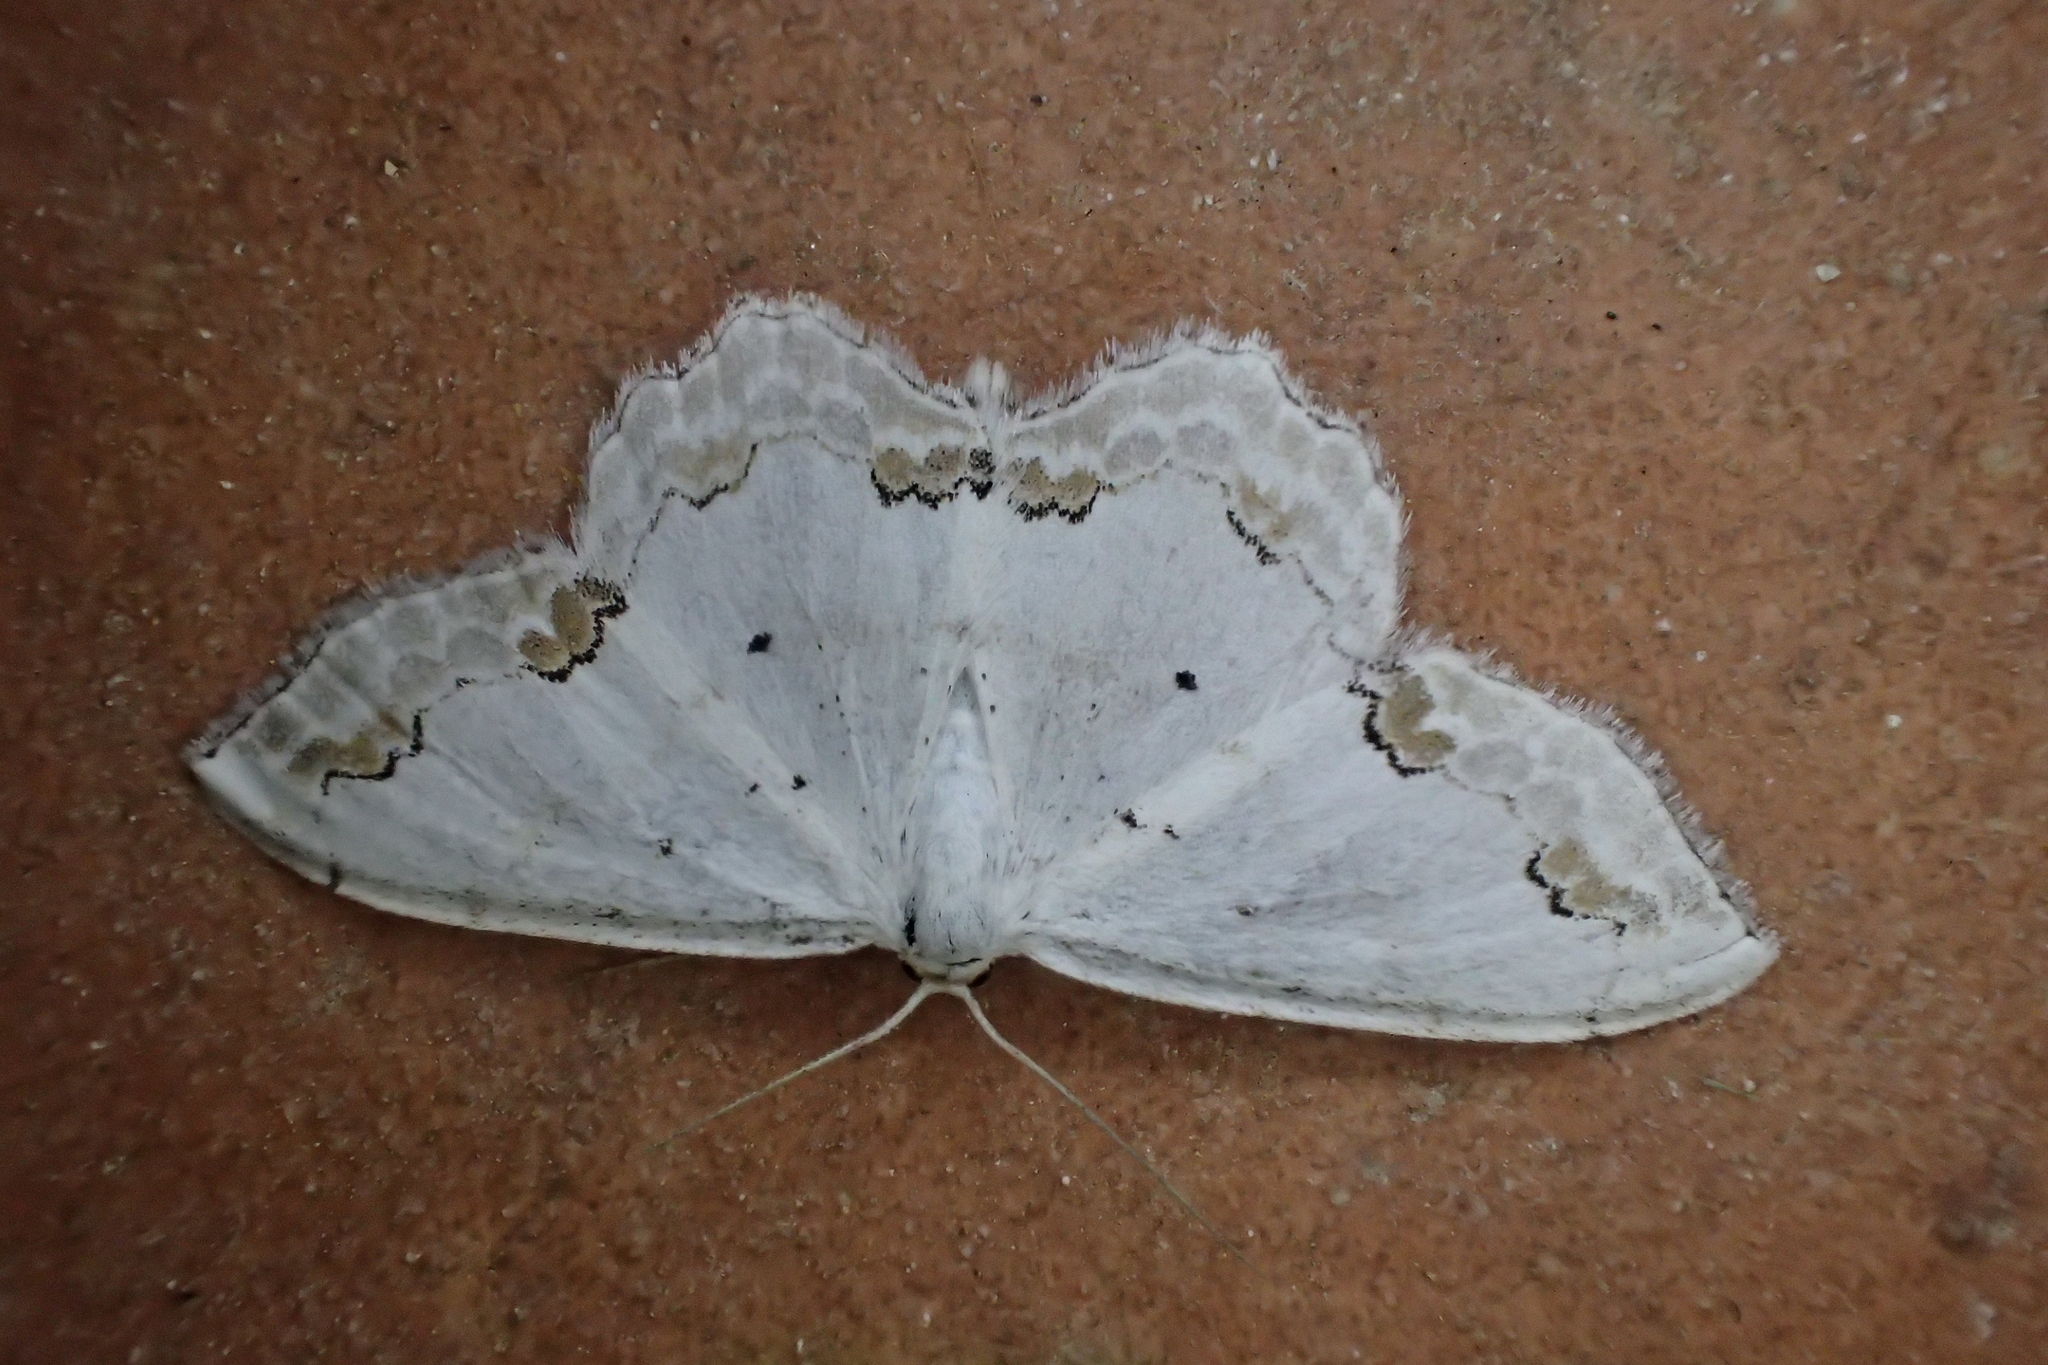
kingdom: Animalia
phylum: Arthropoda
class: Insecta
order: Lepidoptera
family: Geometridae
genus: Scopula
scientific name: Scopula ornata
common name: Lace border
